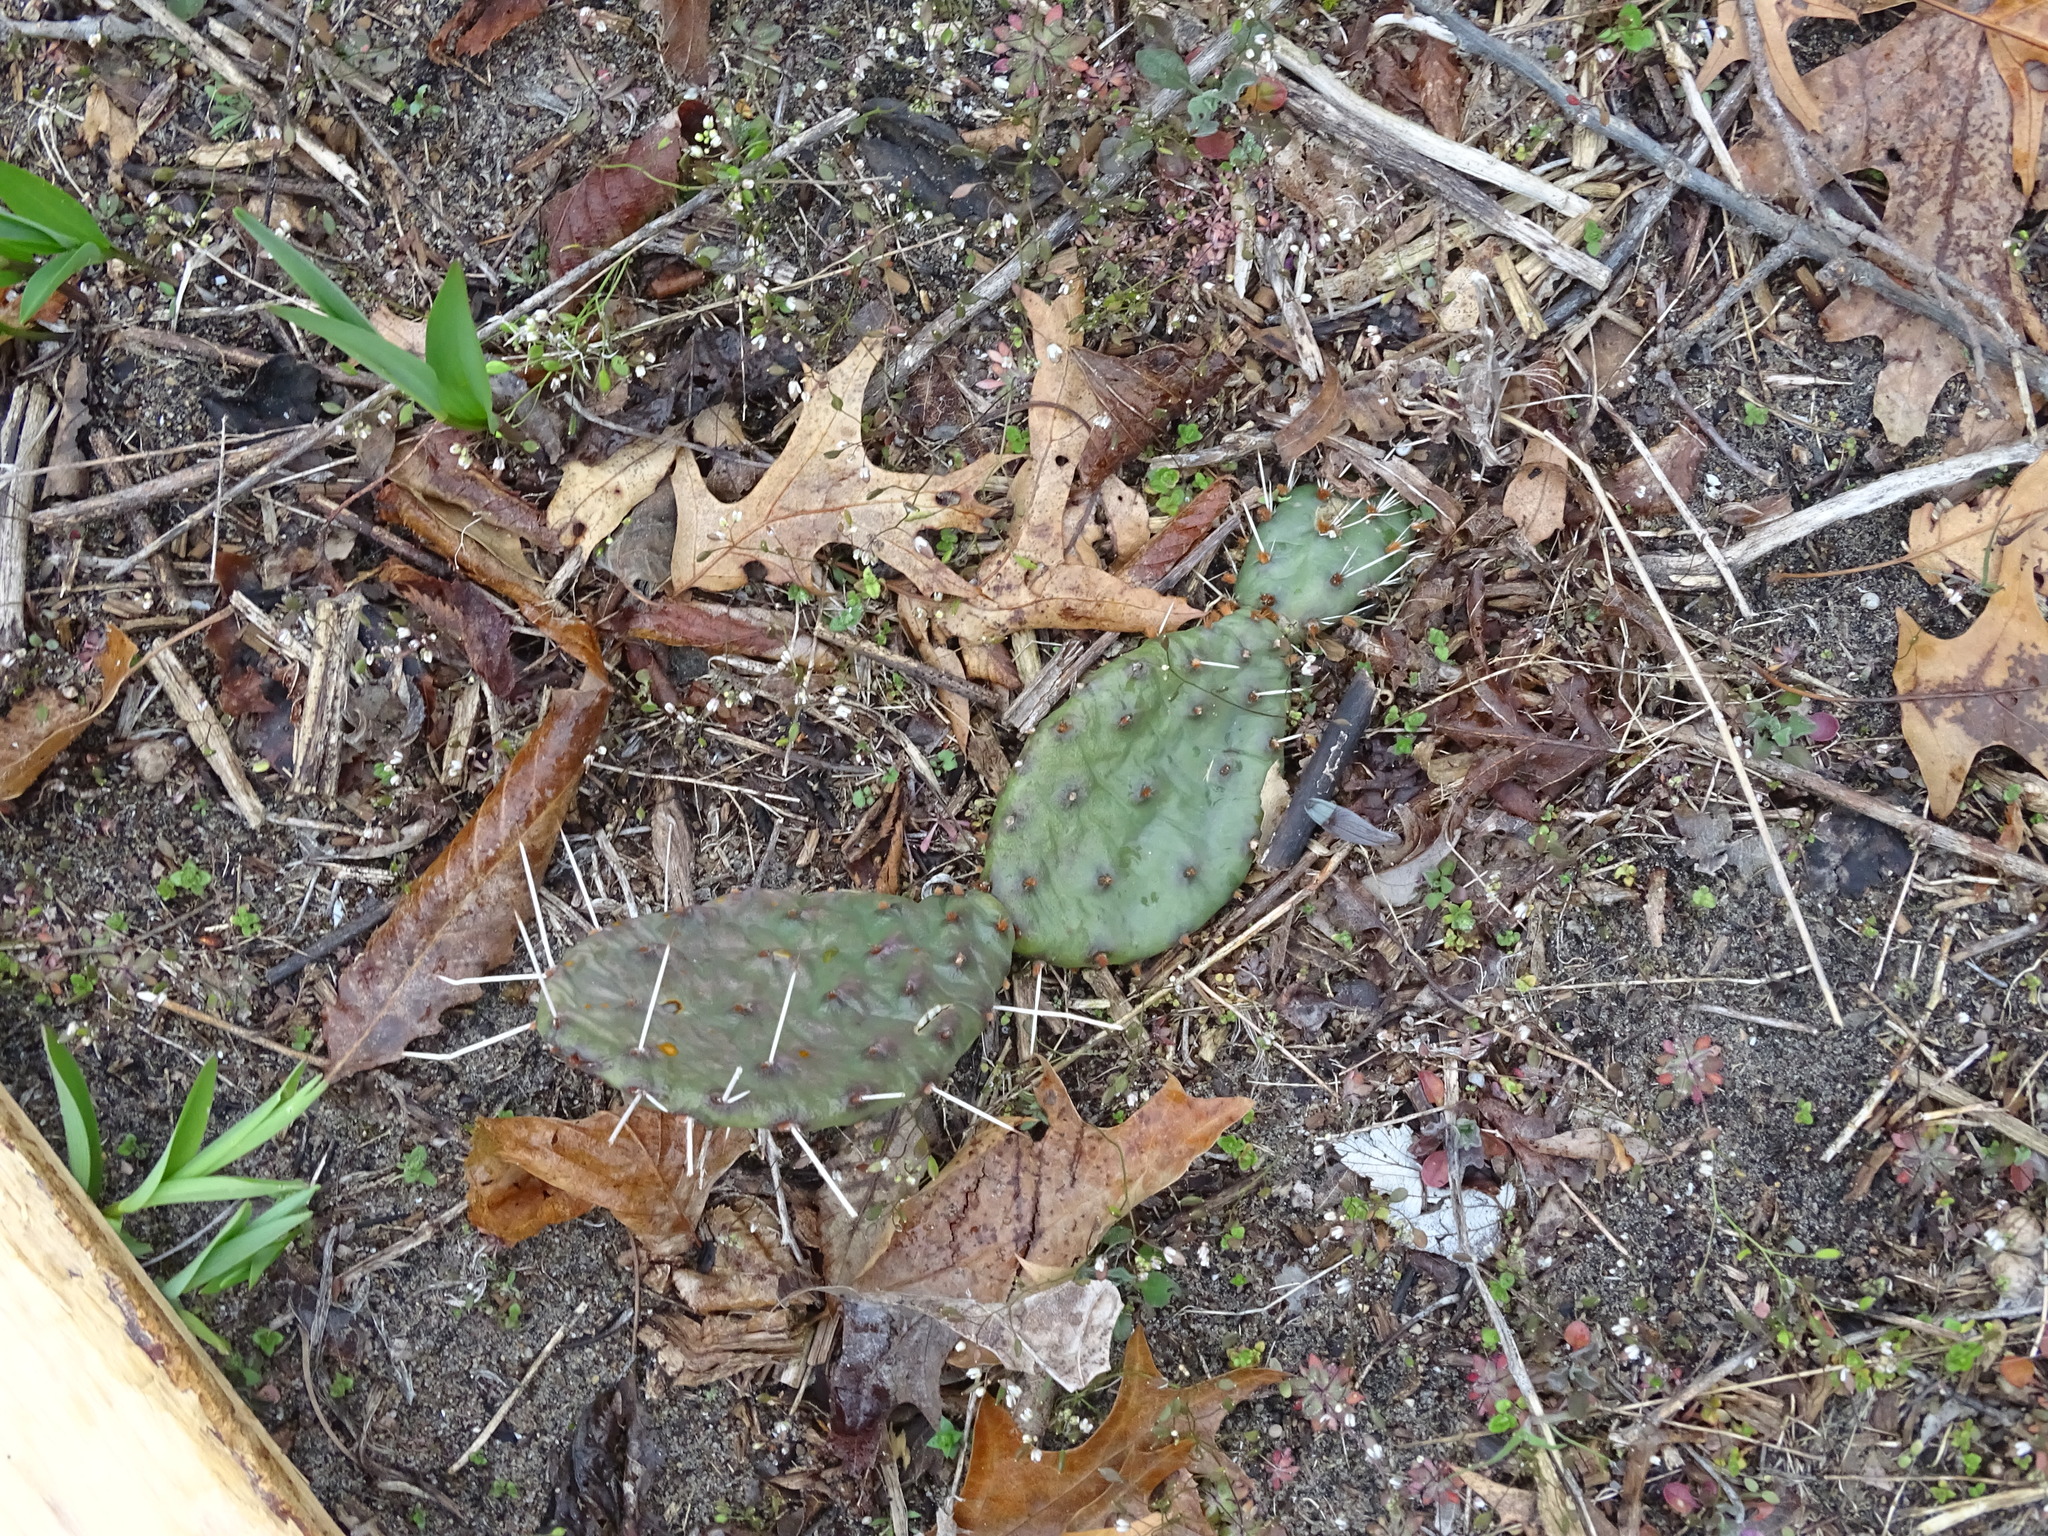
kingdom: Plantae
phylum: Tracheophyta
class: Magnoliopsida
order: Caryophyllales
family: Cactaceae
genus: Opuntia
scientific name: Opuntia humifusa
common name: Eastern prickly-pear
